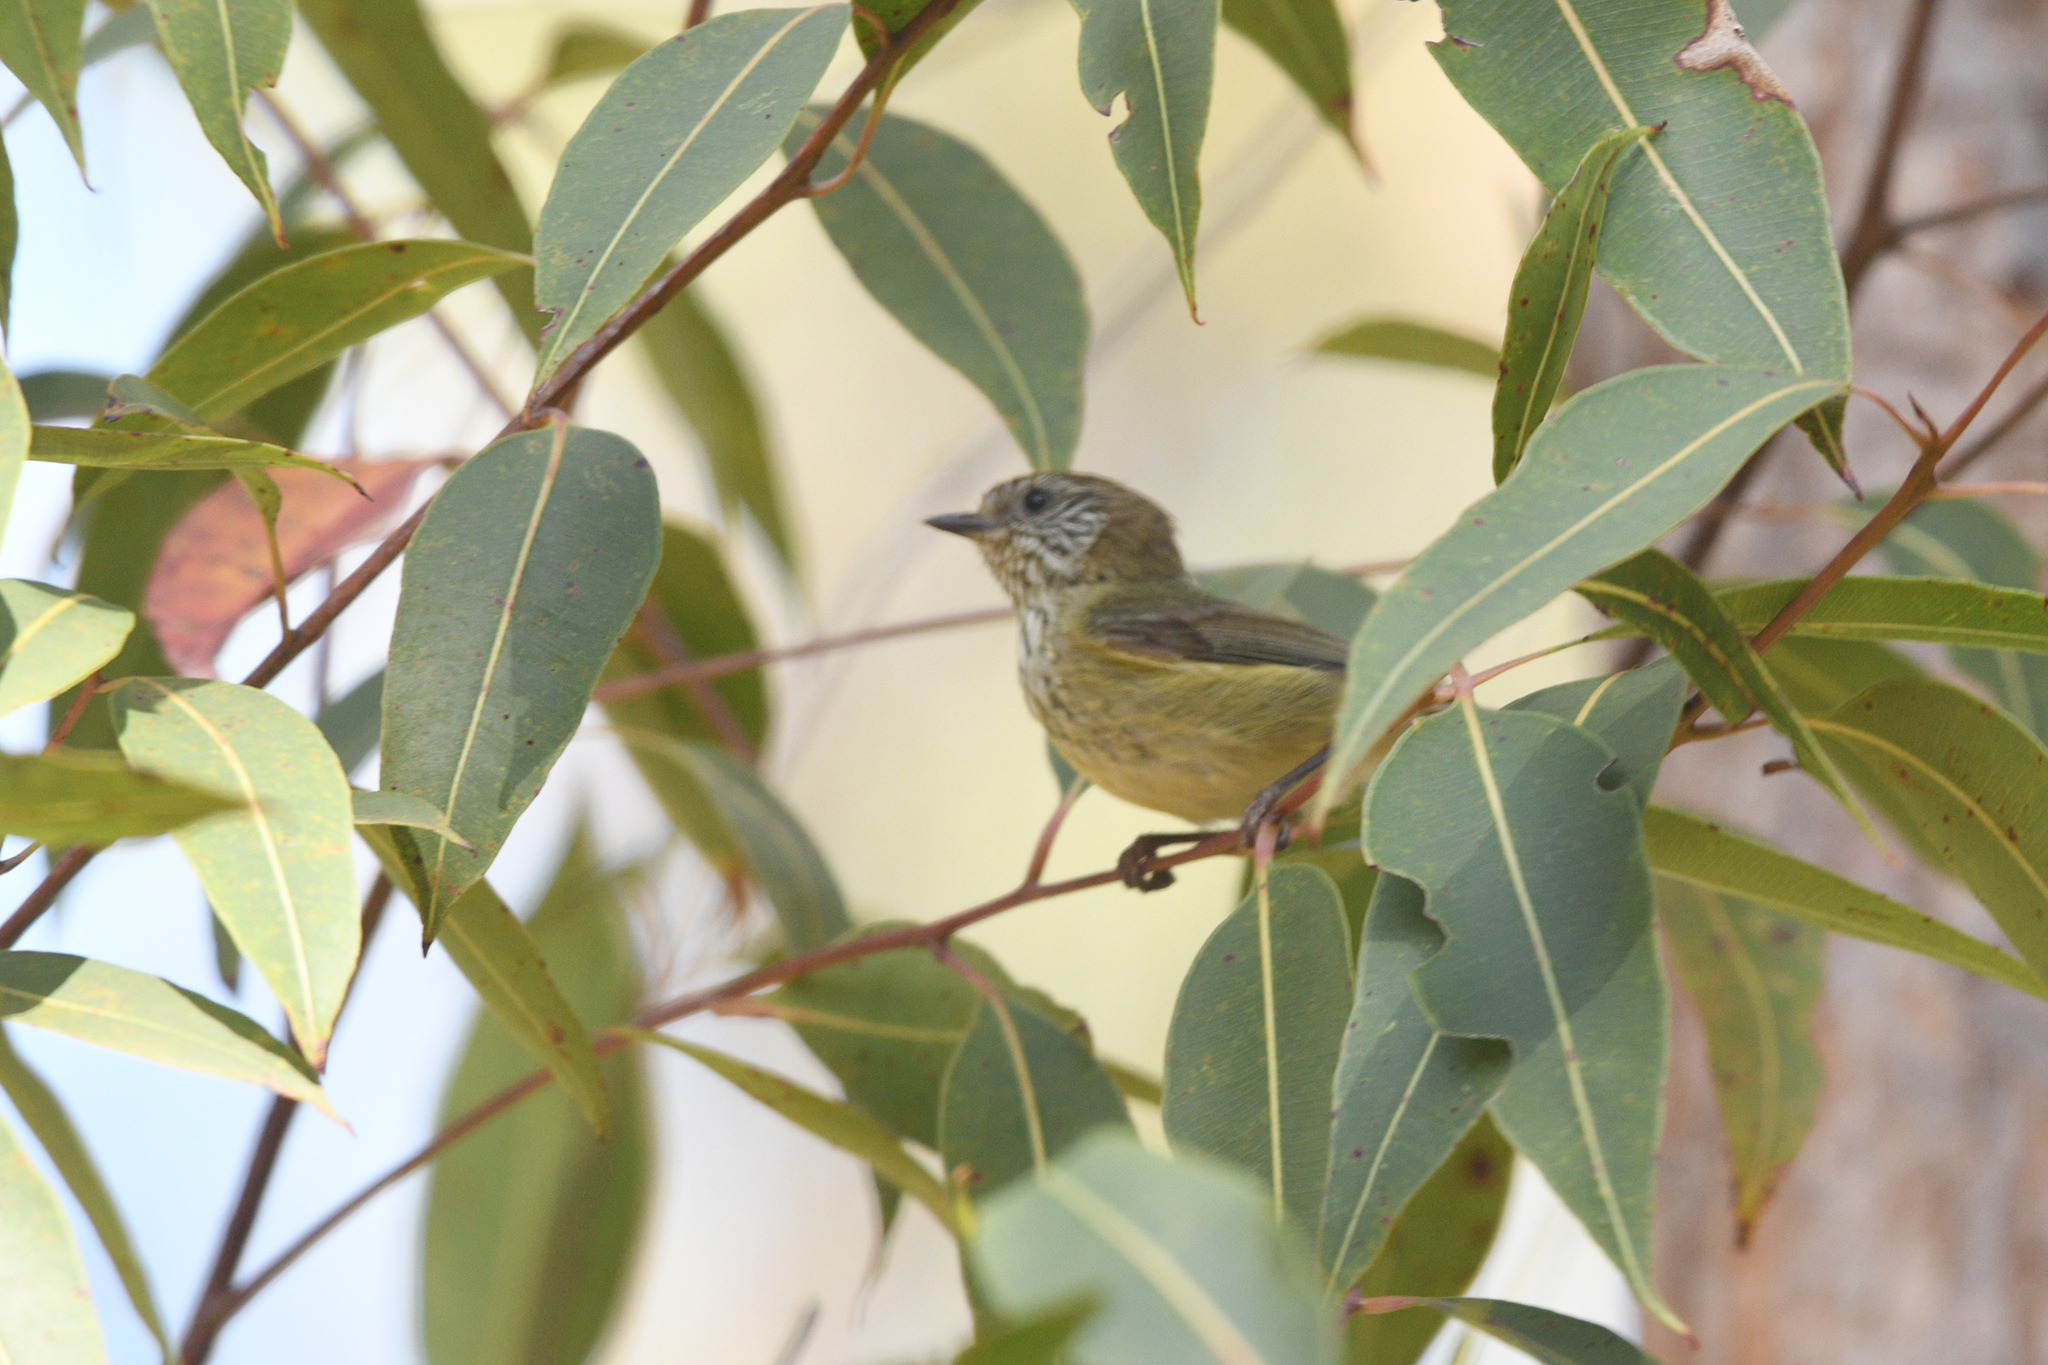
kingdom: Animalia
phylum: Chordata
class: Aves
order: Passeriformes
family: Acanthizidae
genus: Acanthiza
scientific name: Acanthiza lineata
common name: Striated thornbill
